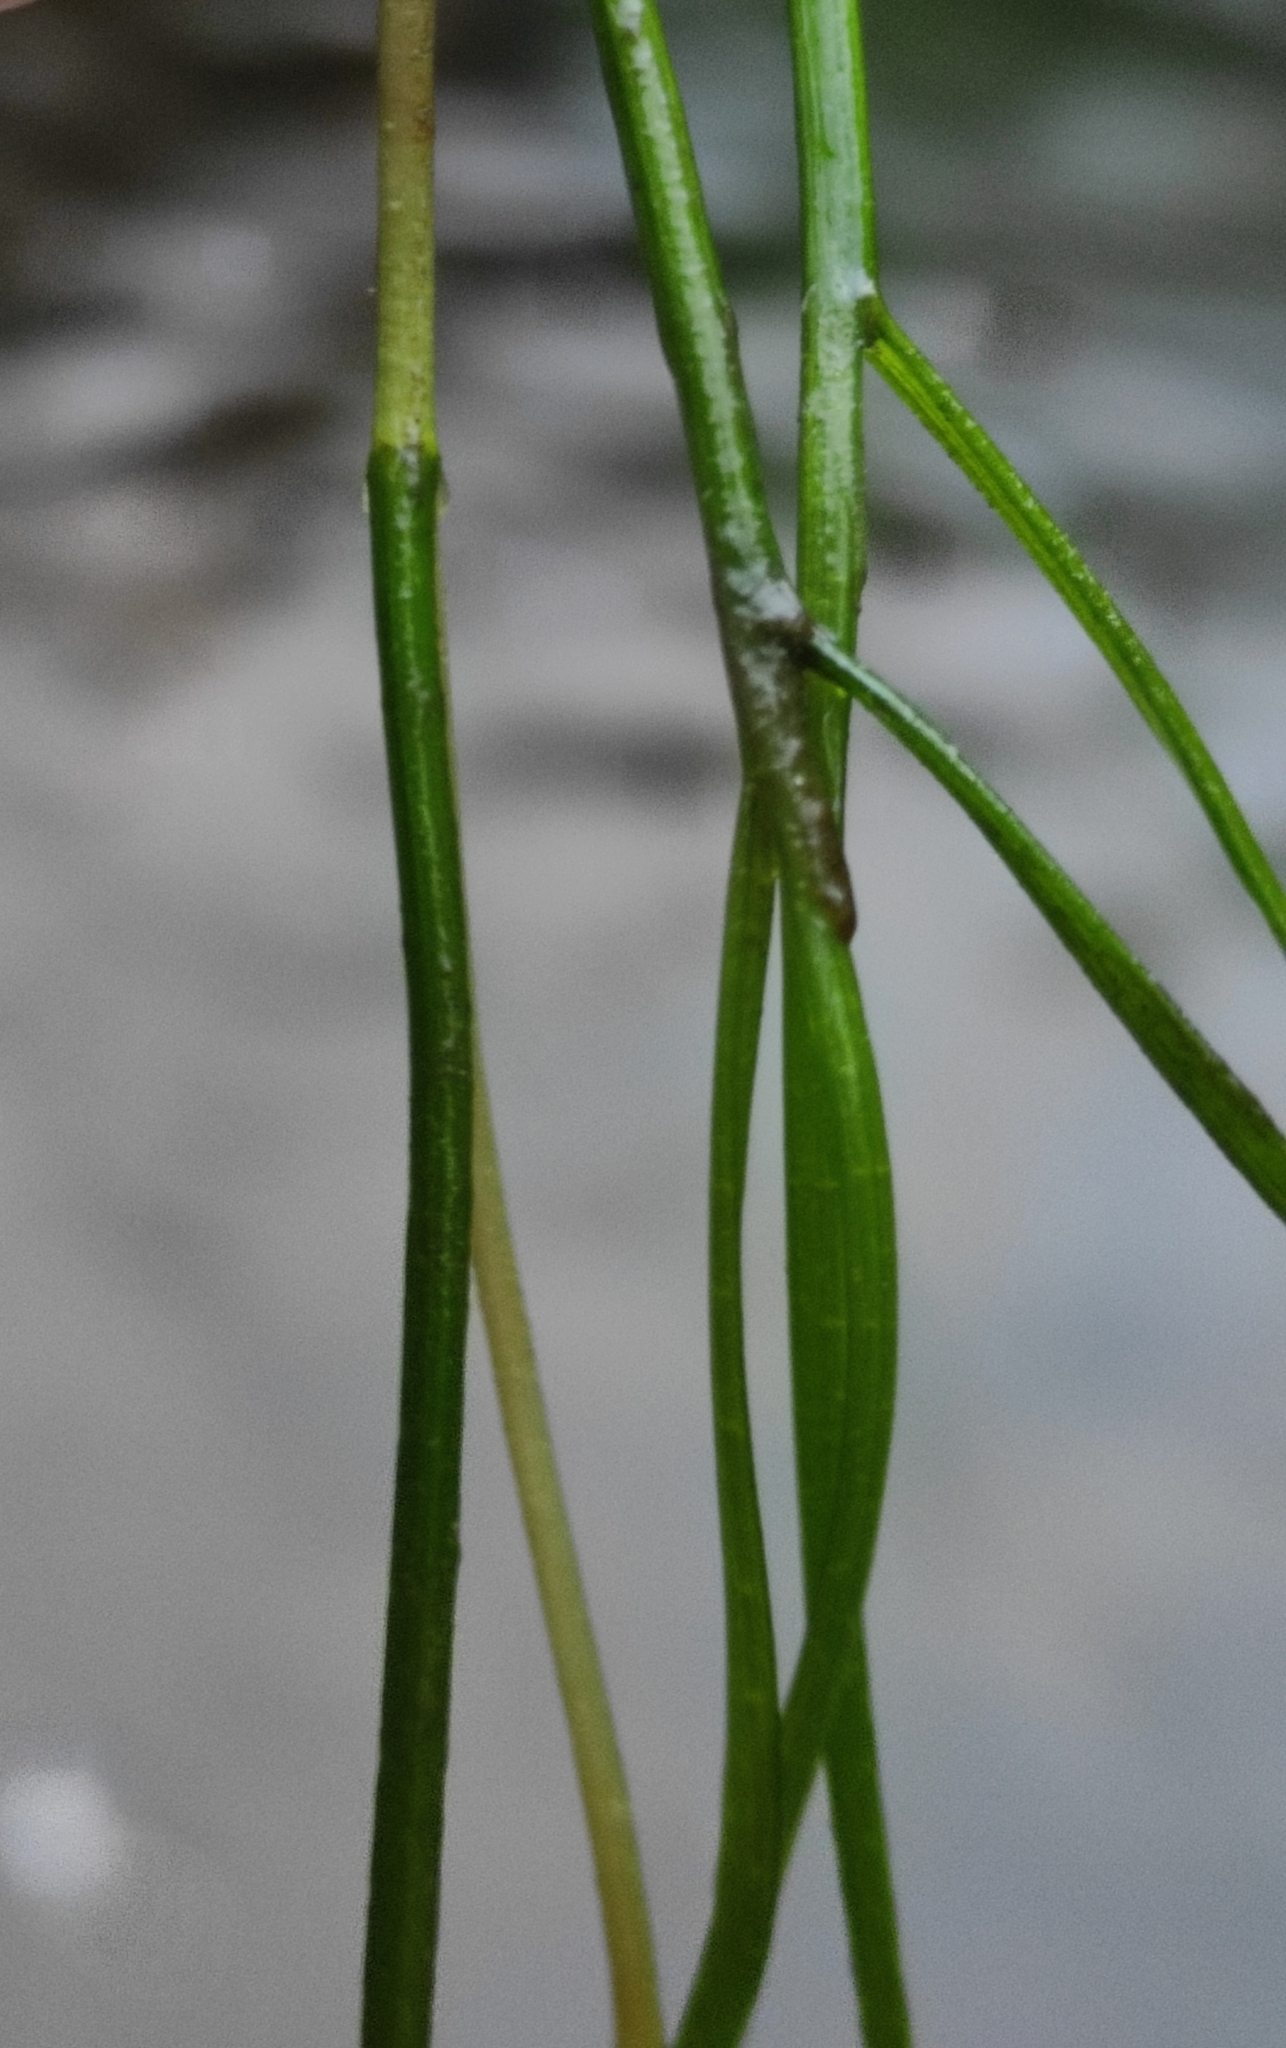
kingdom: Plantae
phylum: Tracheophyta
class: Liliopsida
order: Alismatales
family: Potamogetonaceae
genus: Stuckenia
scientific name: Stuckenia pectinata
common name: Sago pondweed
